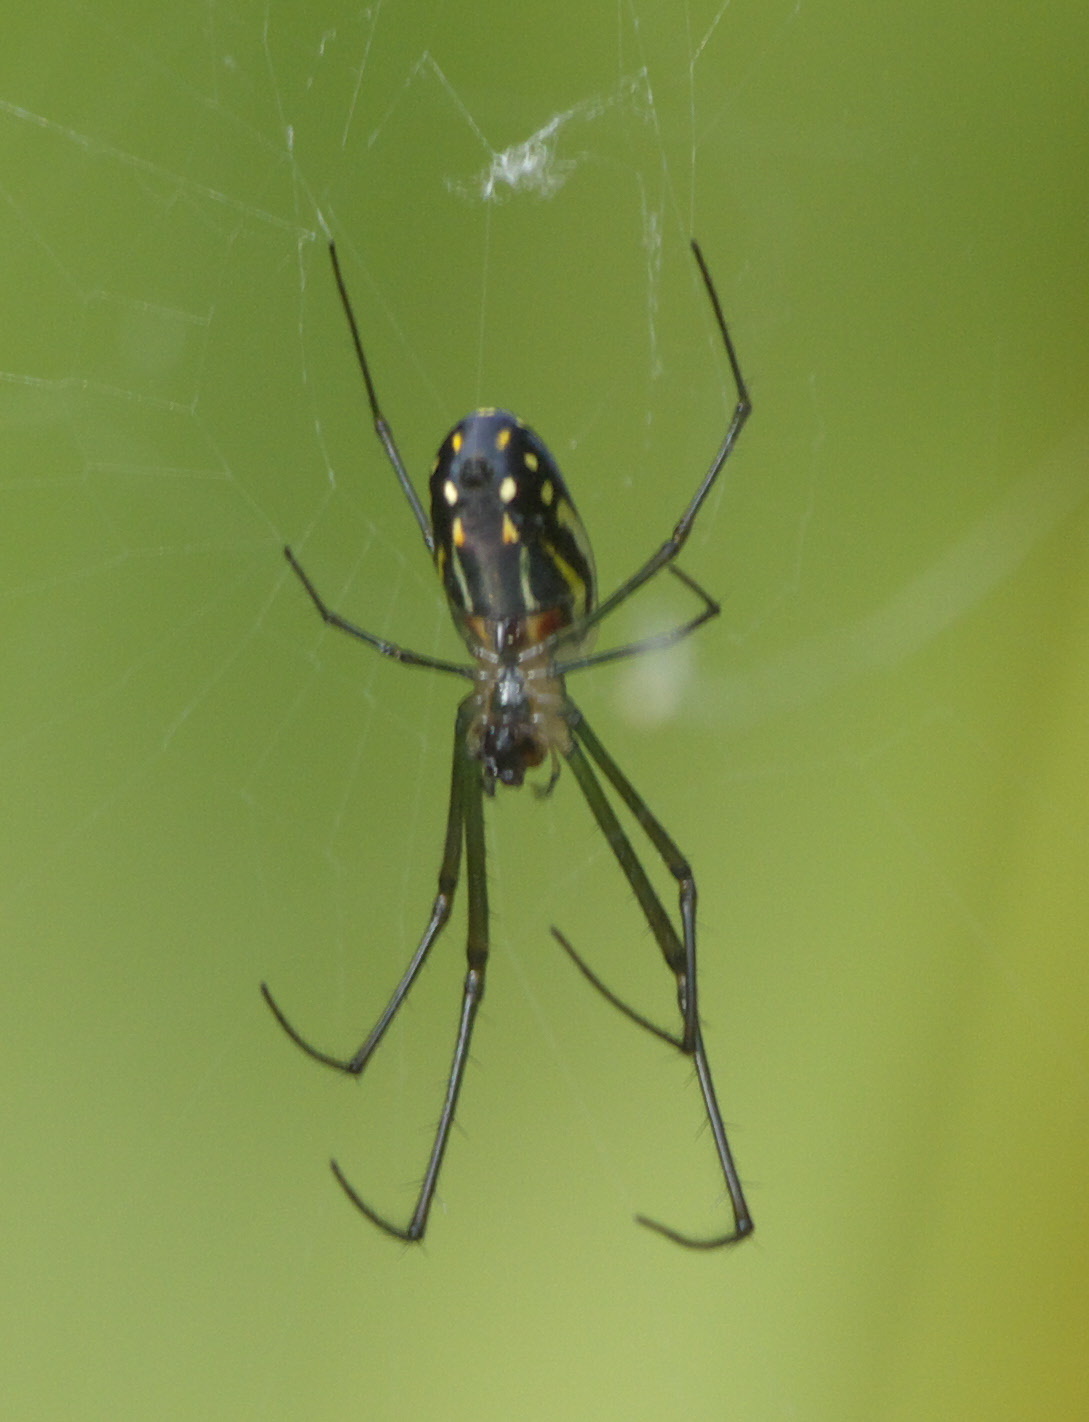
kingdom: Animalia
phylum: Arthropoda
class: Arachnida
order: Araneae
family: Tetragnathidae
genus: Leucauge
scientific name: Leucauge argyra
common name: Longjawed orb weavers
